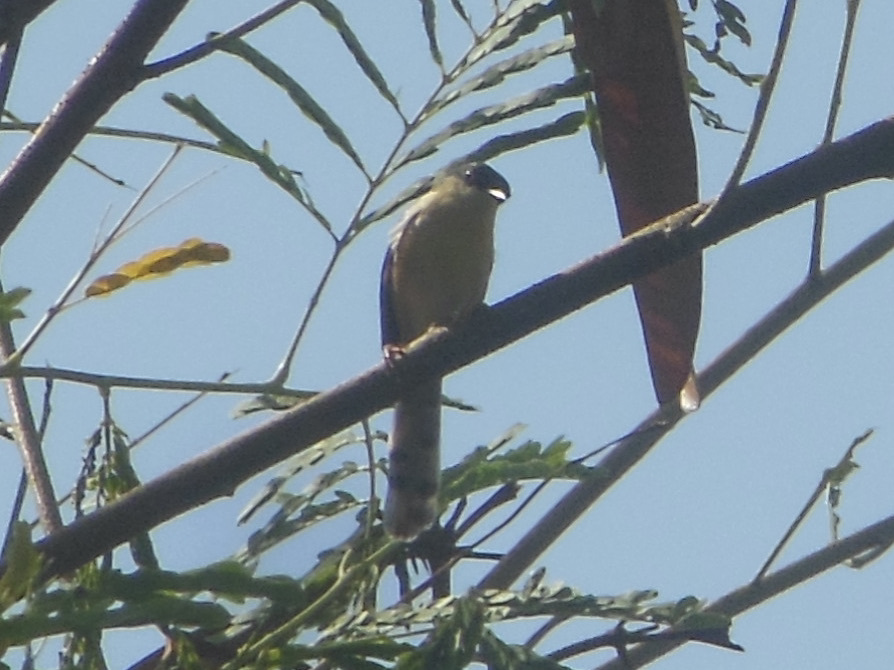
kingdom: Animalia
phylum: Chordata
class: Aves
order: Passeriformes
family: Cisticolidae
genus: Prinia
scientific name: Prinia socialis
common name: Ashy prinia
